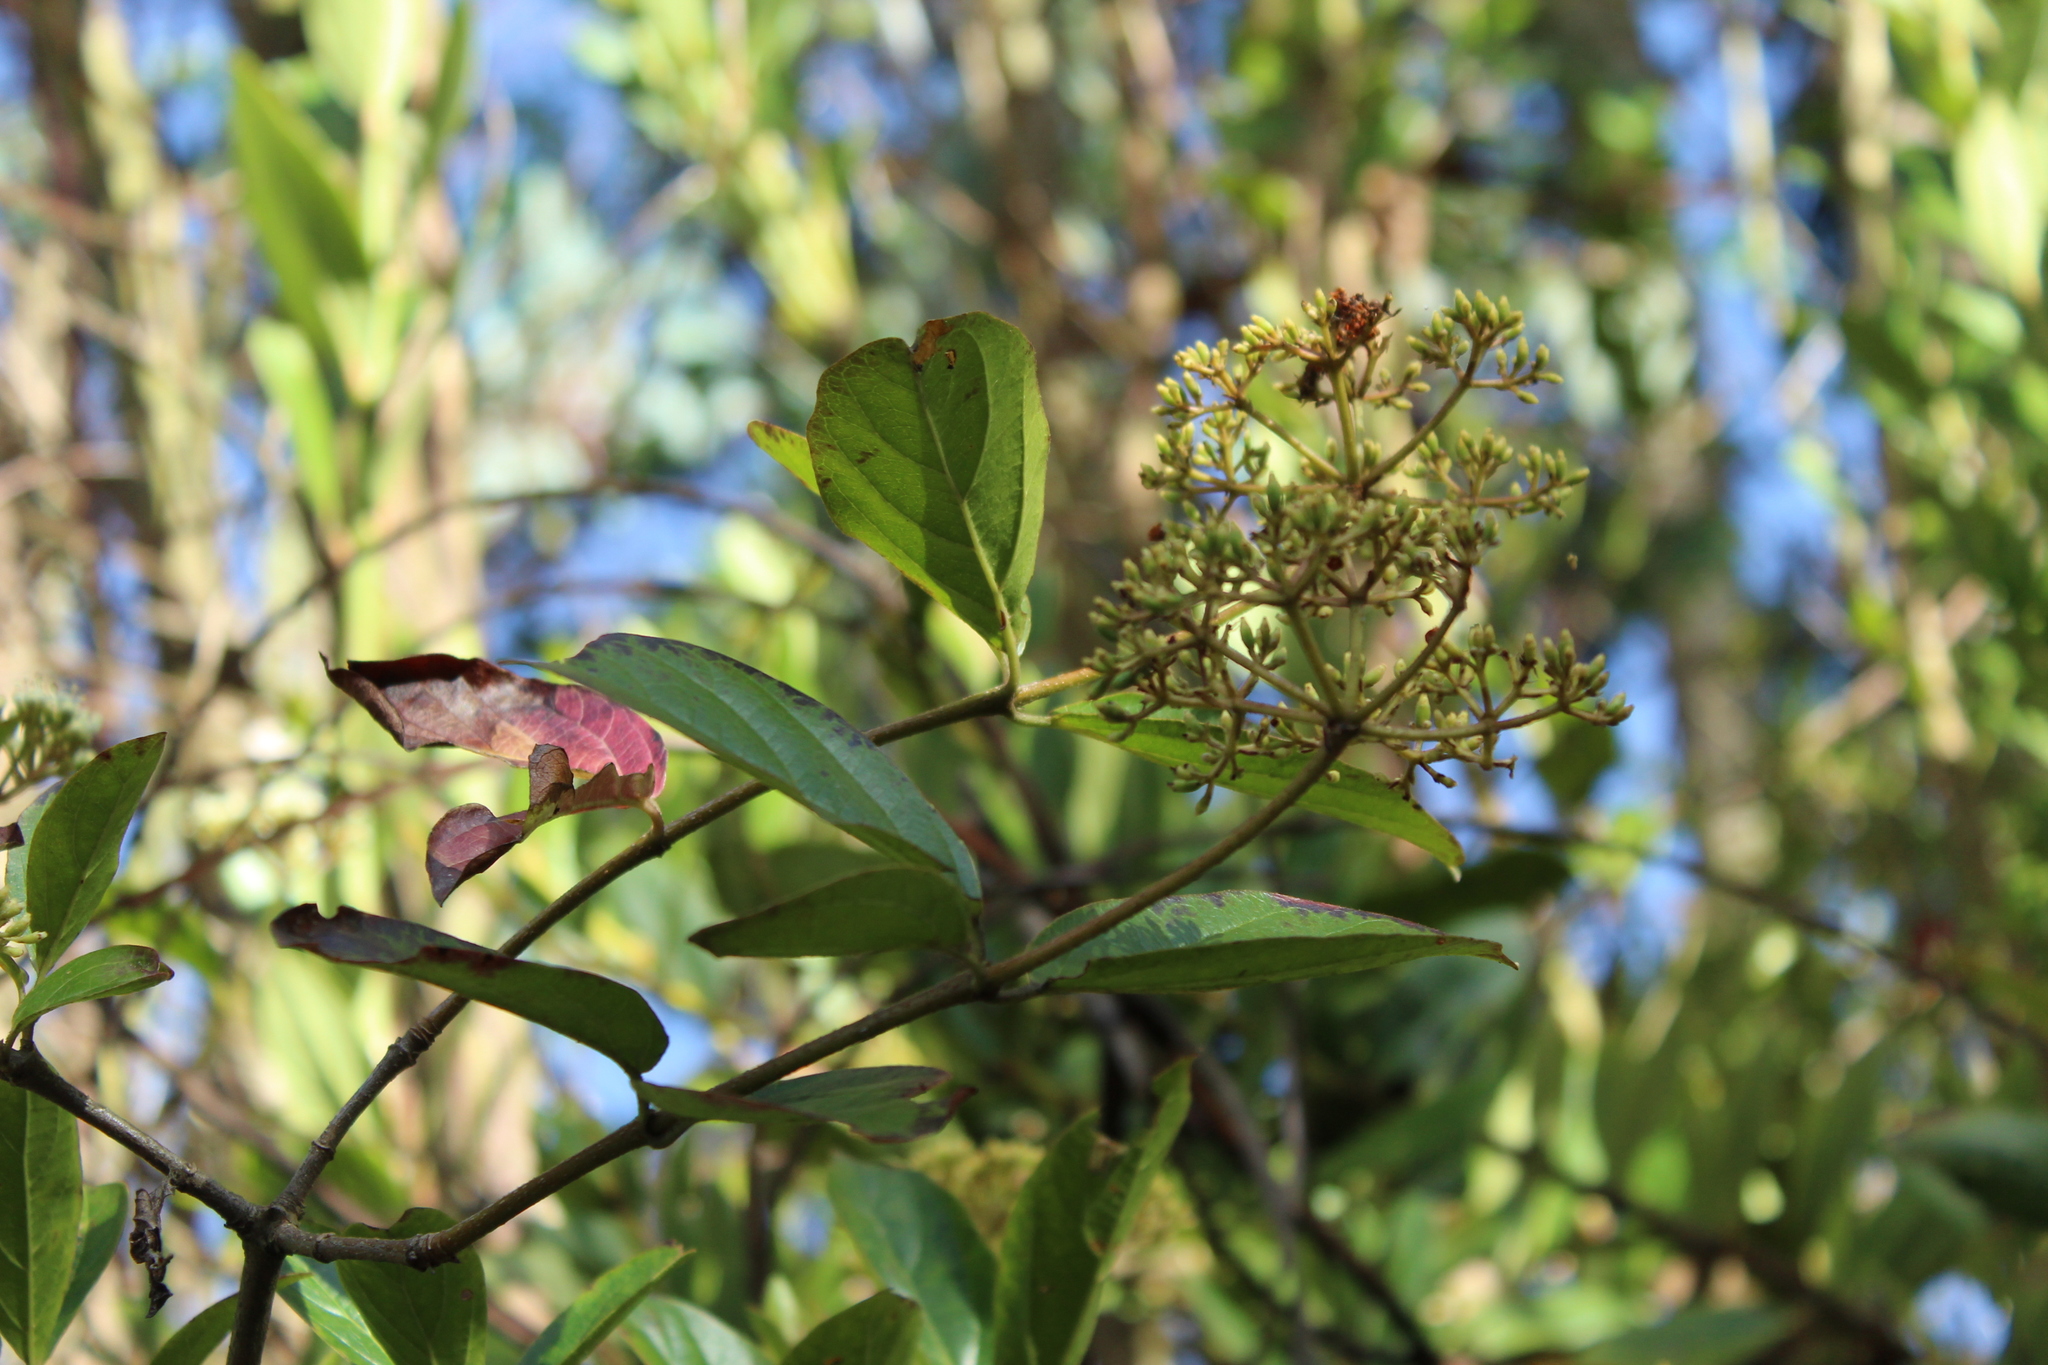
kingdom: Plantae
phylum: Tracheophyta
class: Magnoliopsida
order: Dipsacales
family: Viburnaceae
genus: Viburnum
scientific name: Viburnum triphyllum
